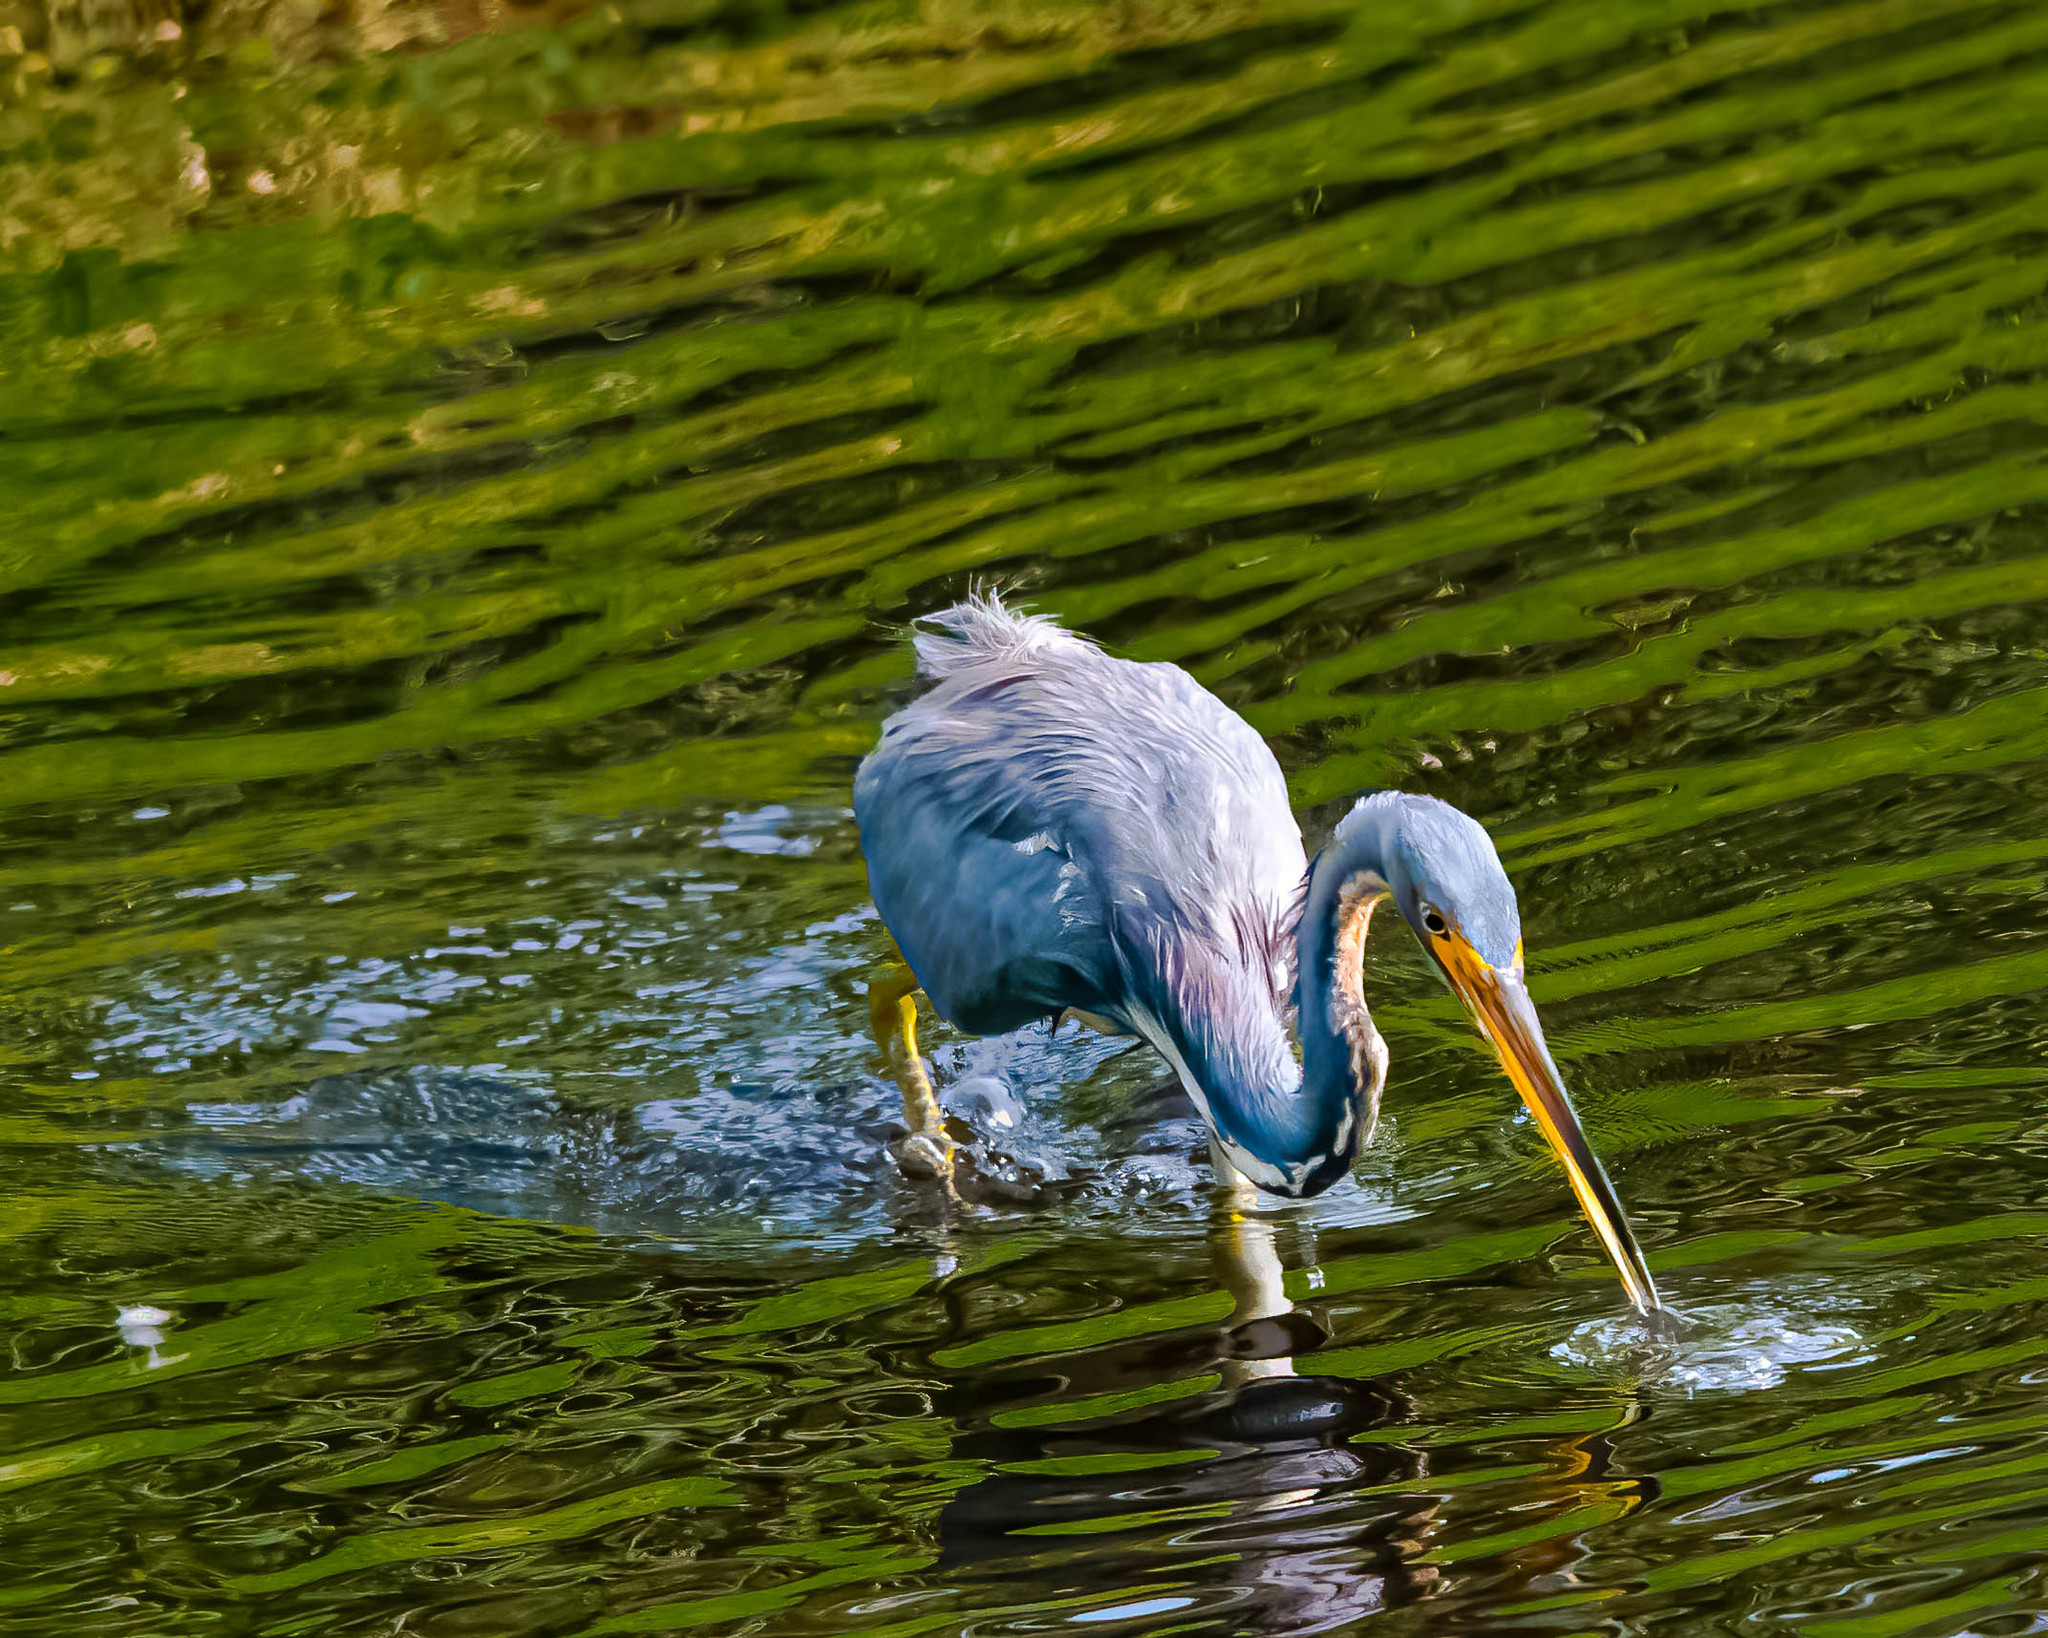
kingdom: Animalia
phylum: Chordata
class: Aves
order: Pelecaniformes
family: Ardeidae
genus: Egretta
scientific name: Egretta tricolor
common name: Tricolored heron
